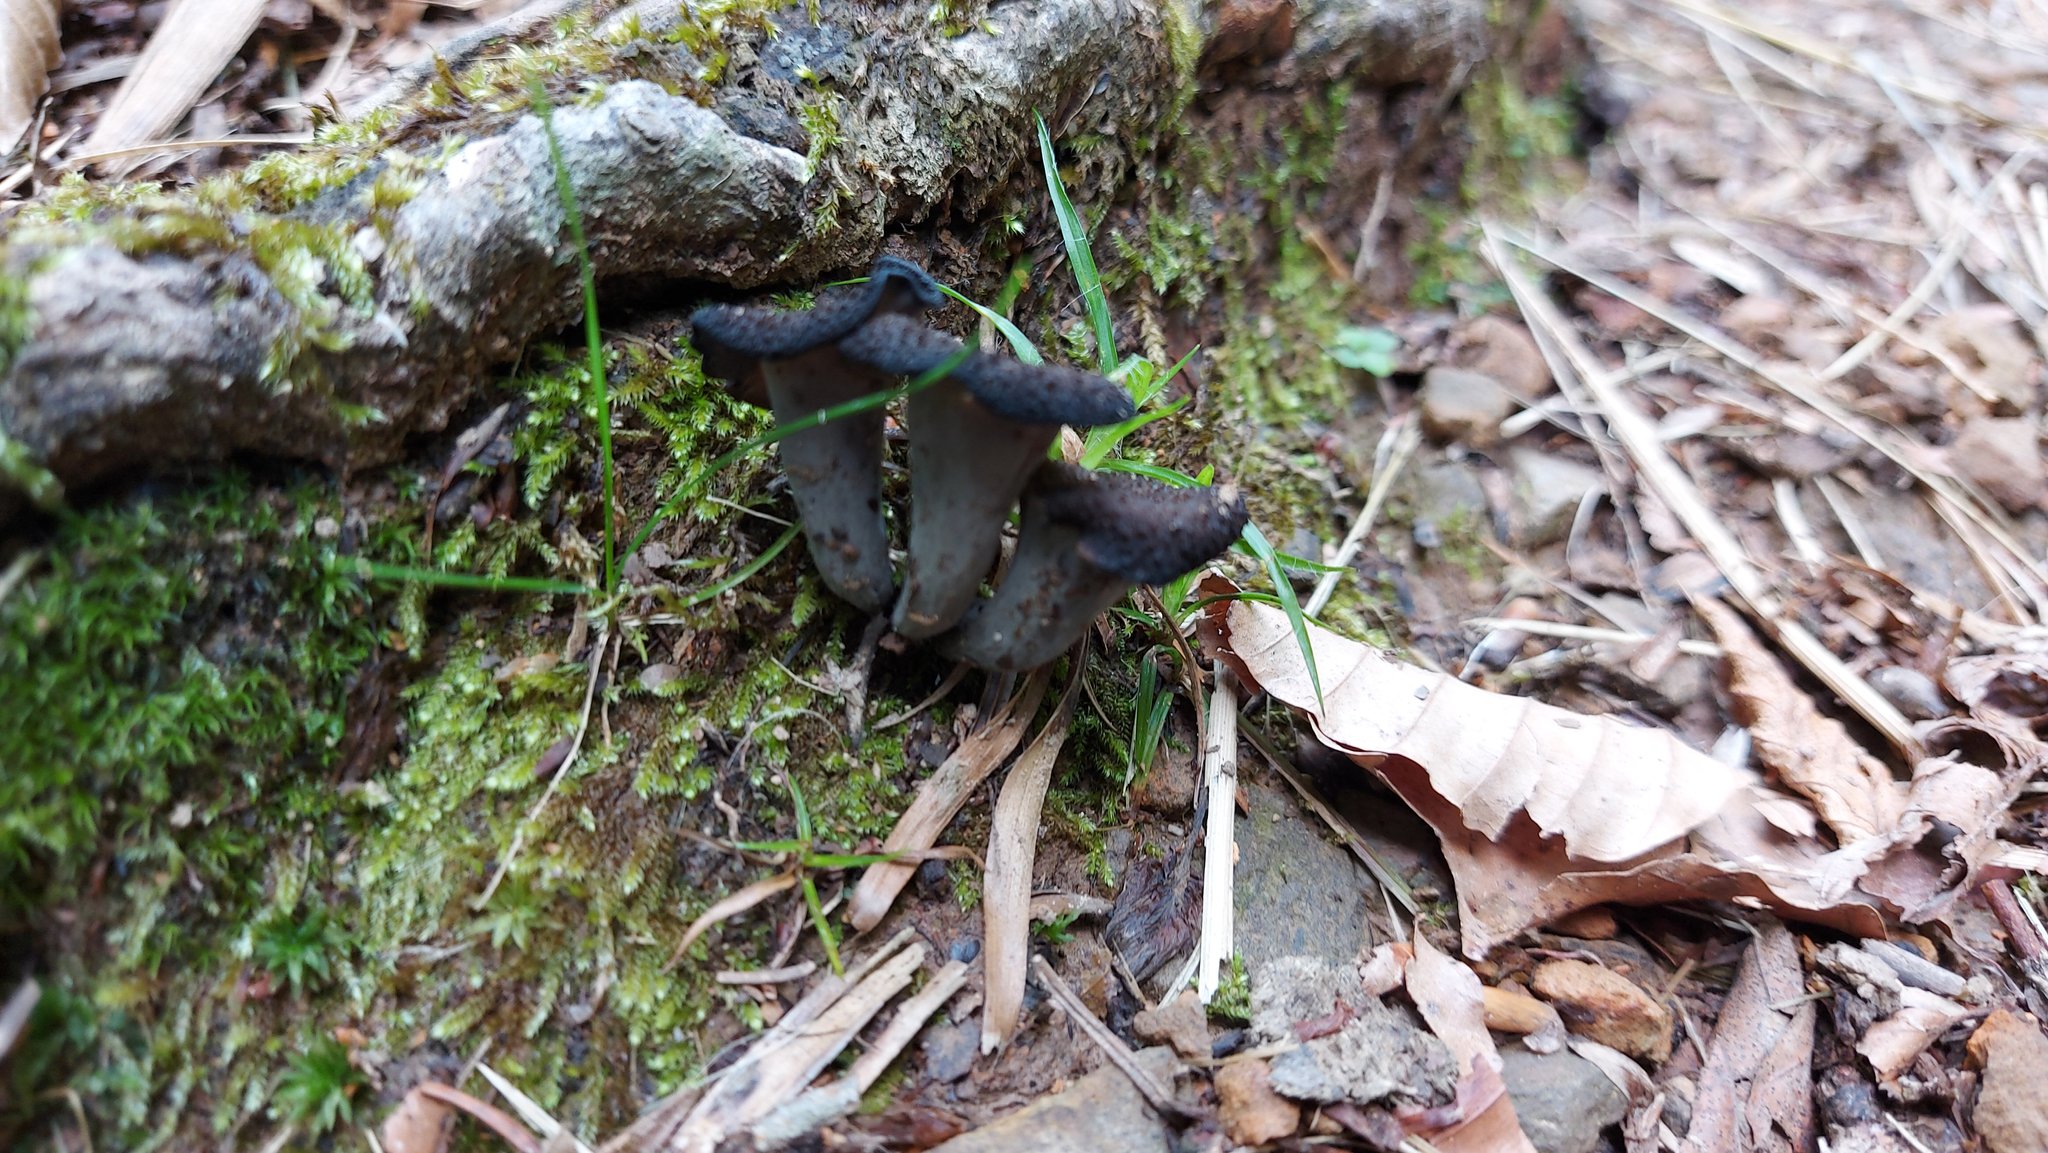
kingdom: Fungi
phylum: Basidiomycota
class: Agaricomycetes
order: Cantharellales
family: Hydnaceae
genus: Craterellus
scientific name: Craterellus cornucopioides
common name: Horn of plenty
